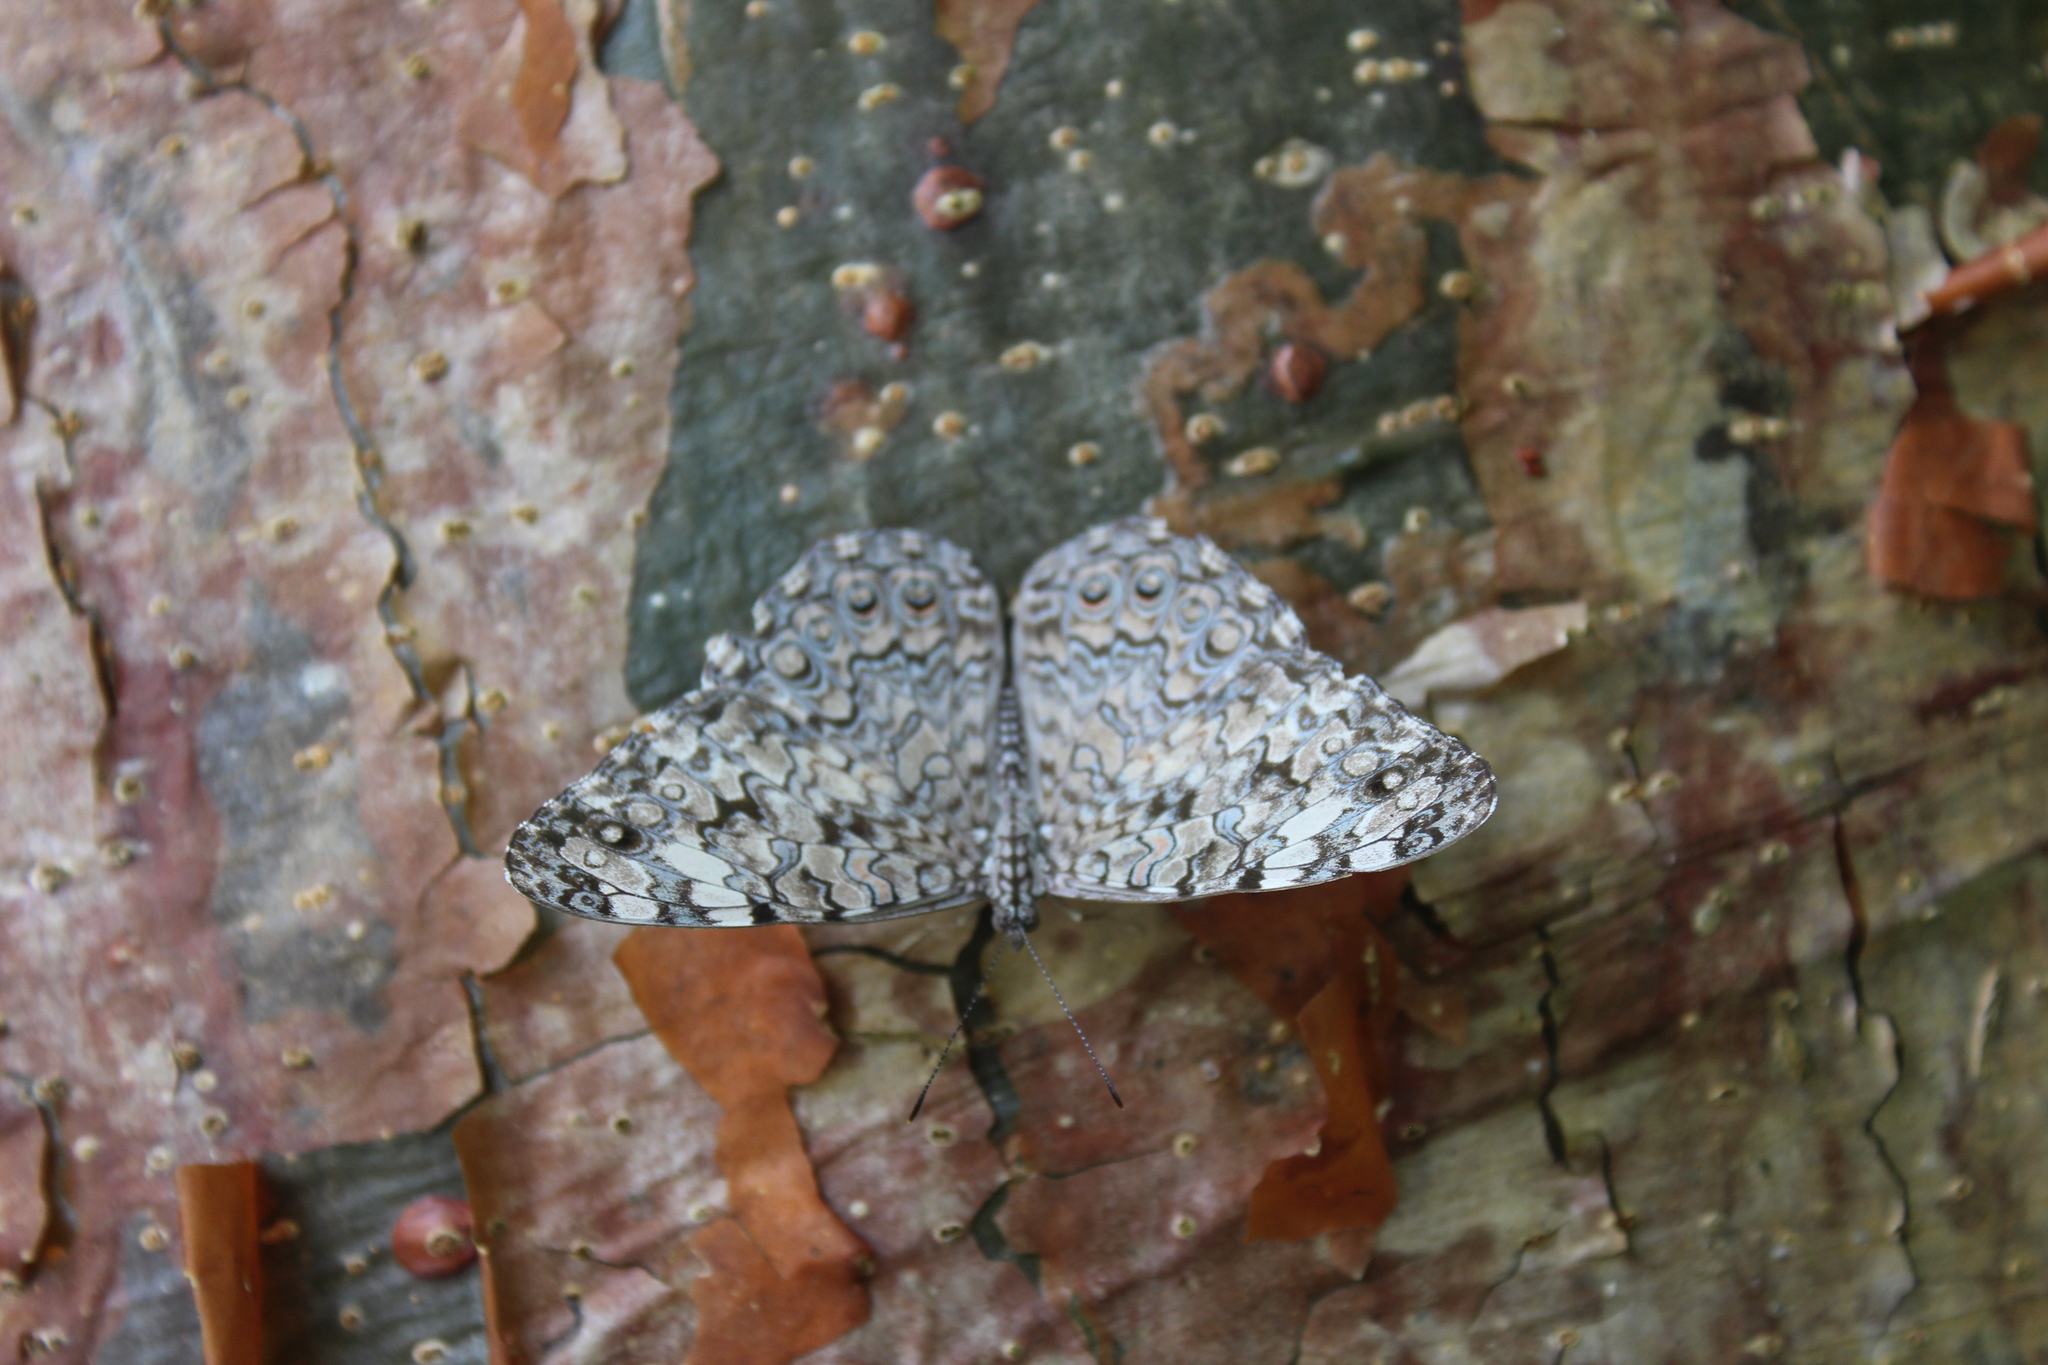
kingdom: Animalia
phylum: Arthropoda
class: Insecta
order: Lepidoptera
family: Nymphalidae
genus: Hamadryas
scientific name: Hamadryas februa
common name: Gray cracker
